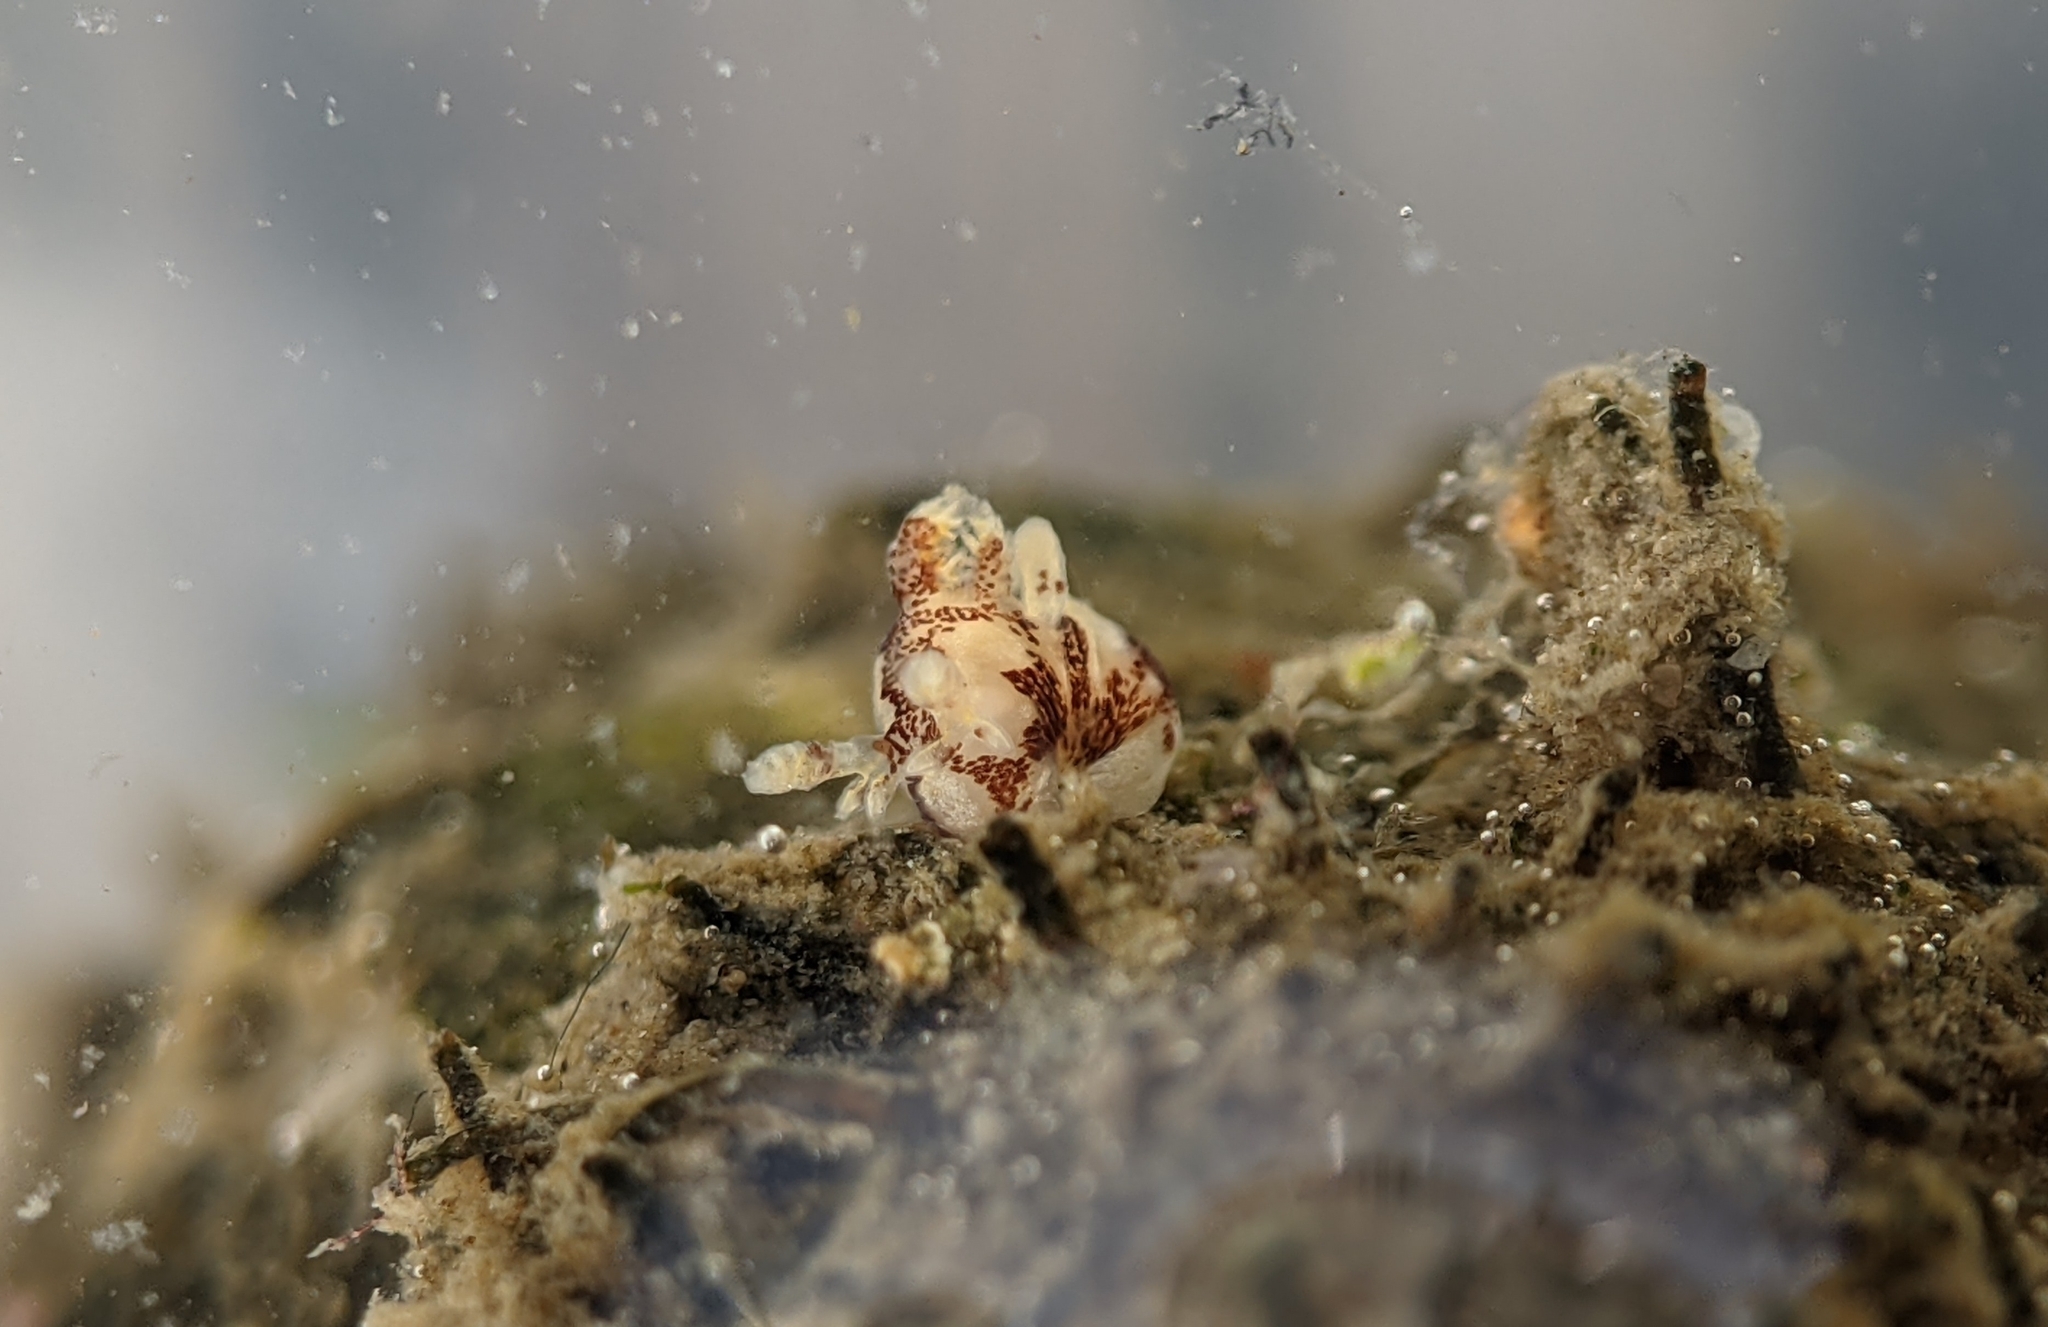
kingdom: Animalia
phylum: Mollusca
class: Gastropoda
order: Nudibranchia
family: Goniodorididae
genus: Ancula
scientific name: Ancula lentiginosa
